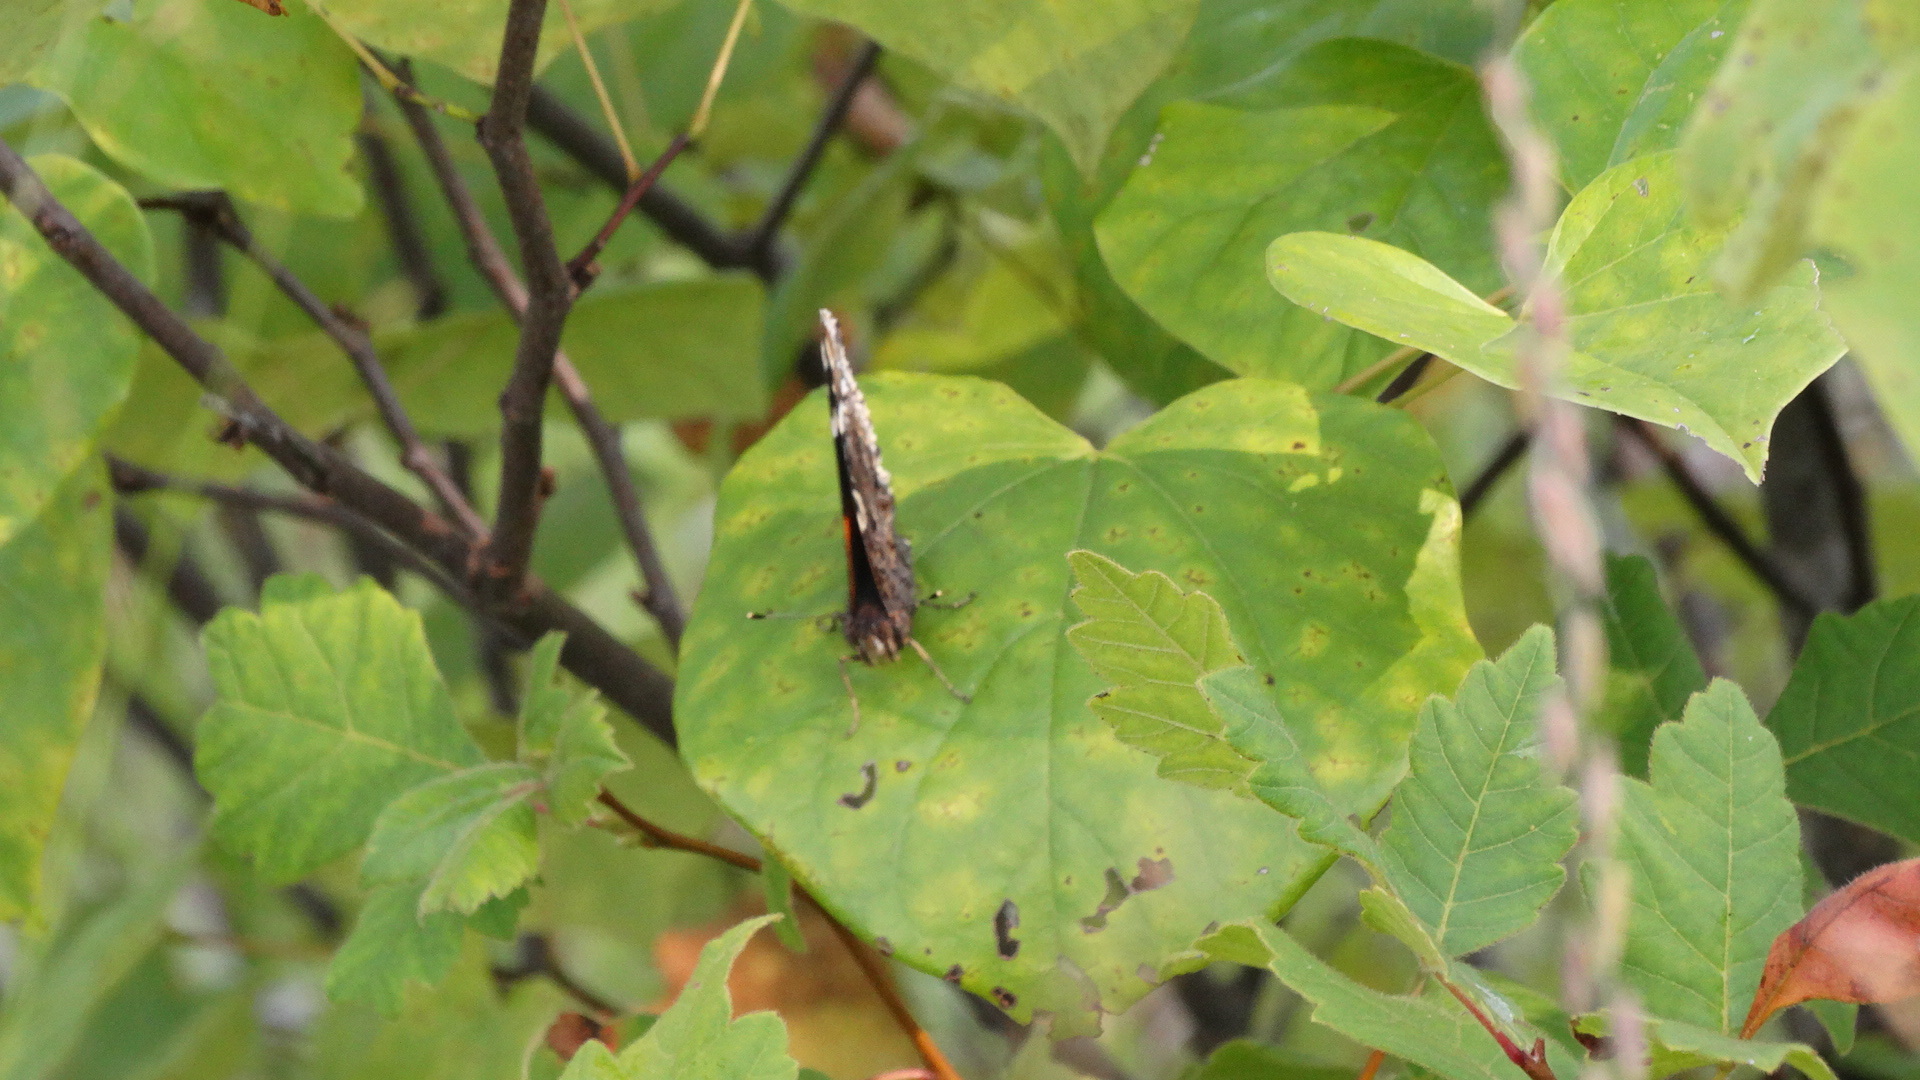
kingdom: Animalia
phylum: Arthropoda
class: Insecta
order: Lepidoptera
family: Nymphalidae
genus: Vanessa
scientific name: Vanessa atalanta
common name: Red admiral
